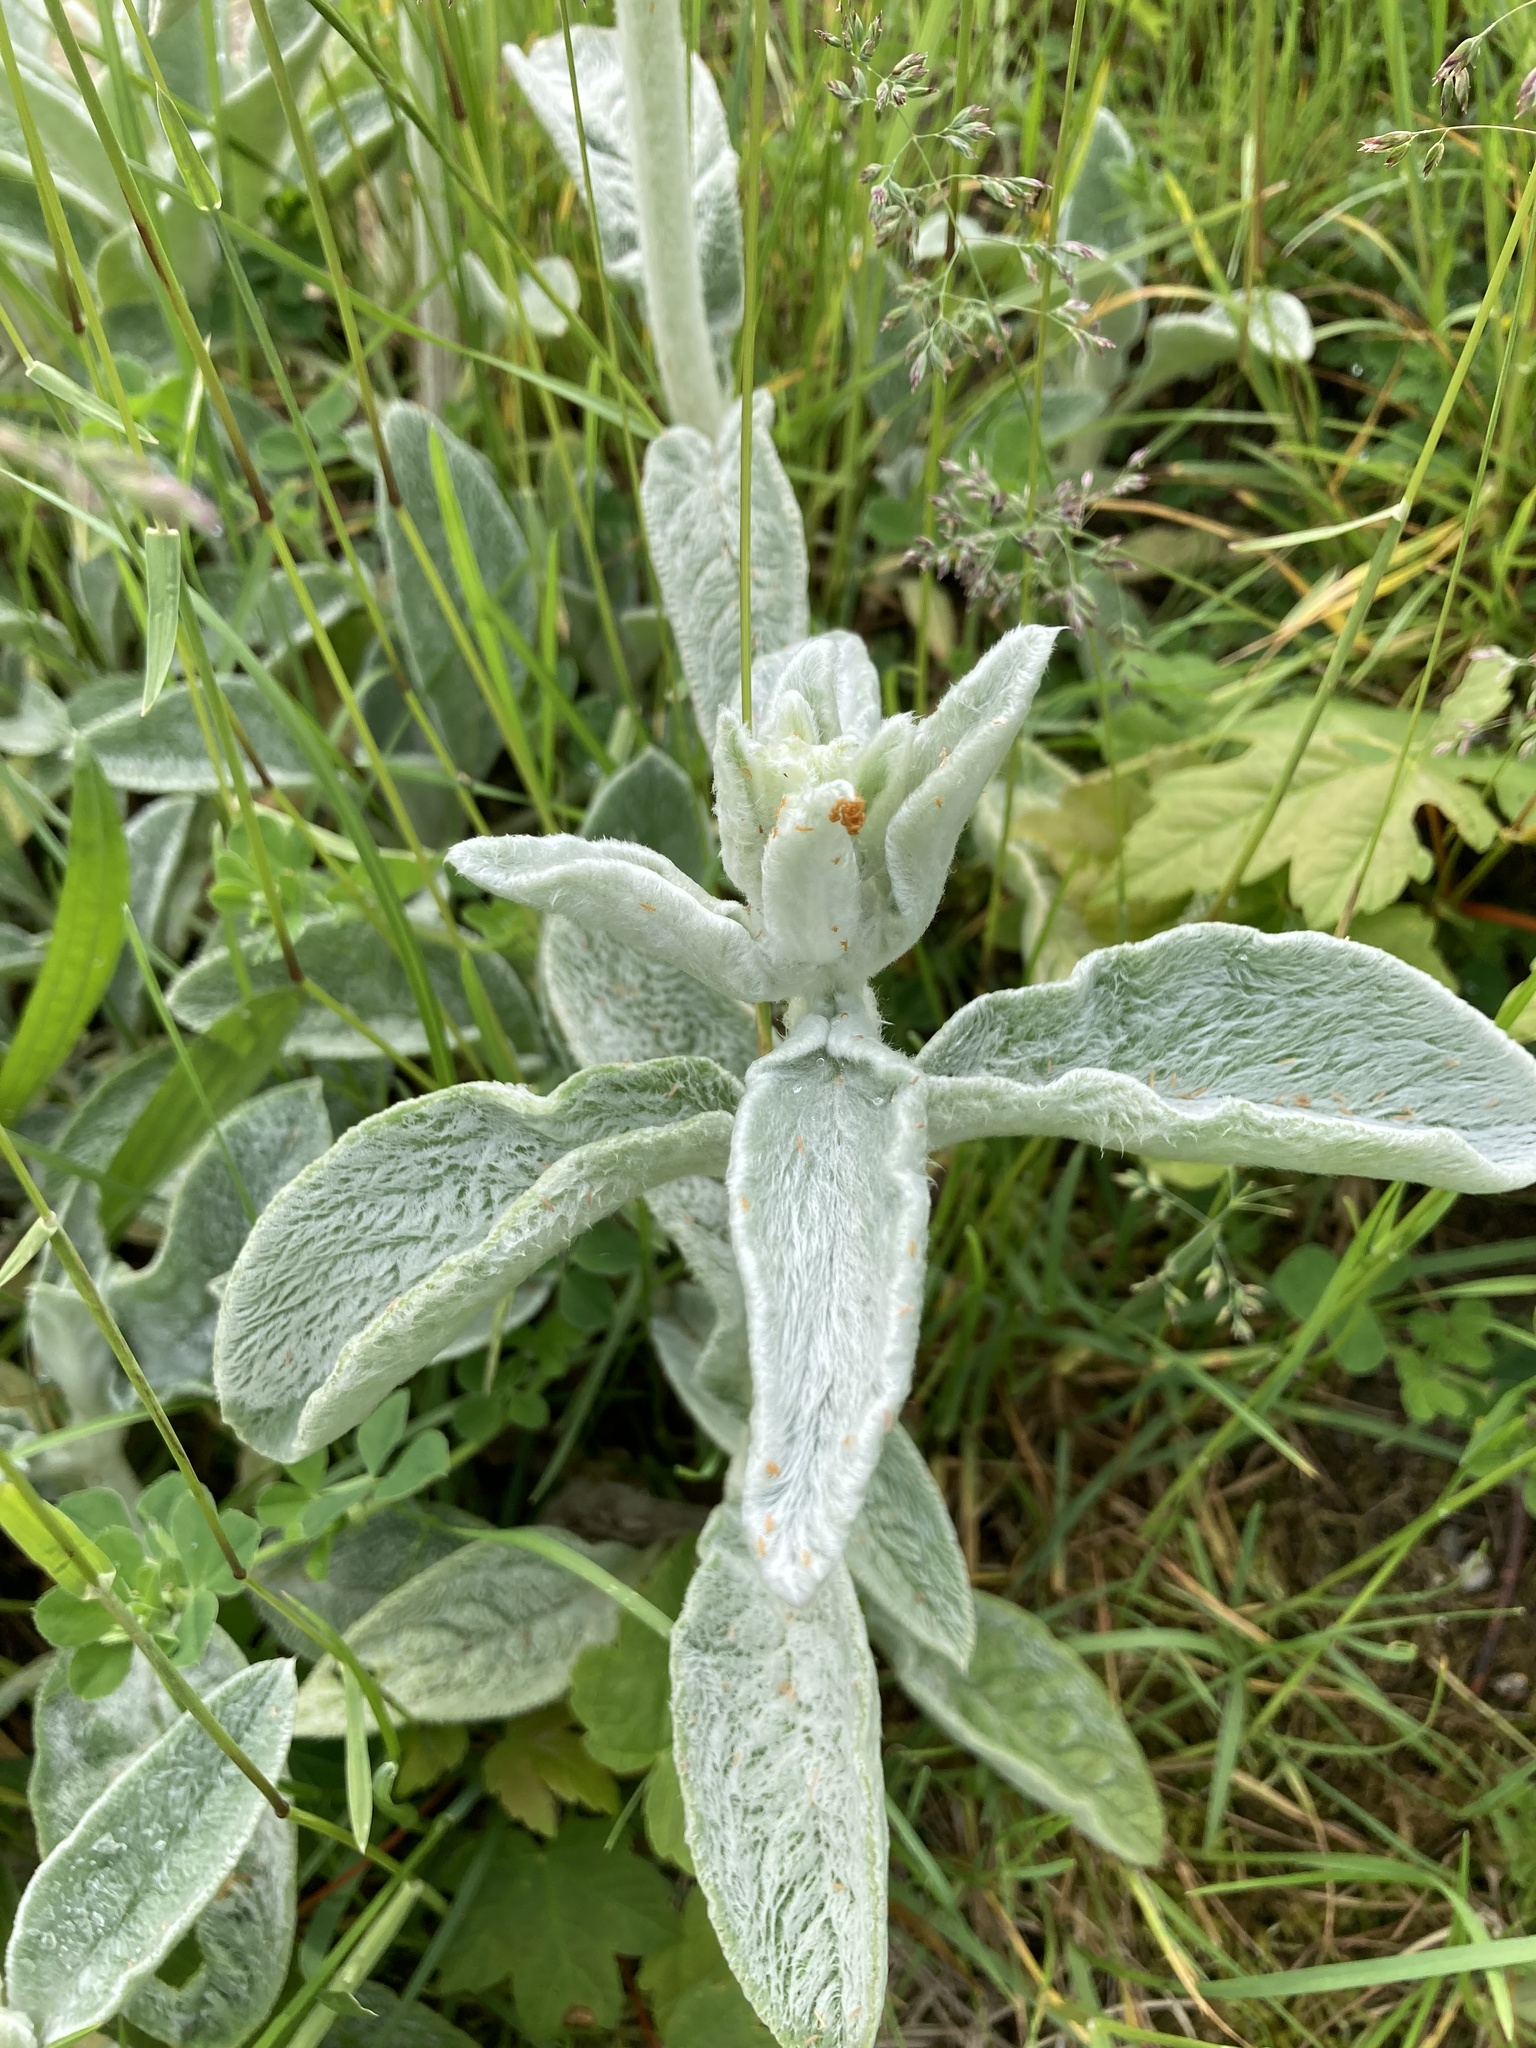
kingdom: Plantae
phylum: Tracheophyta
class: Magnoliopsida
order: Lamiales
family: Lamiaceae
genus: Stachys
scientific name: Stachys byzantina
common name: Lamb's-ear
